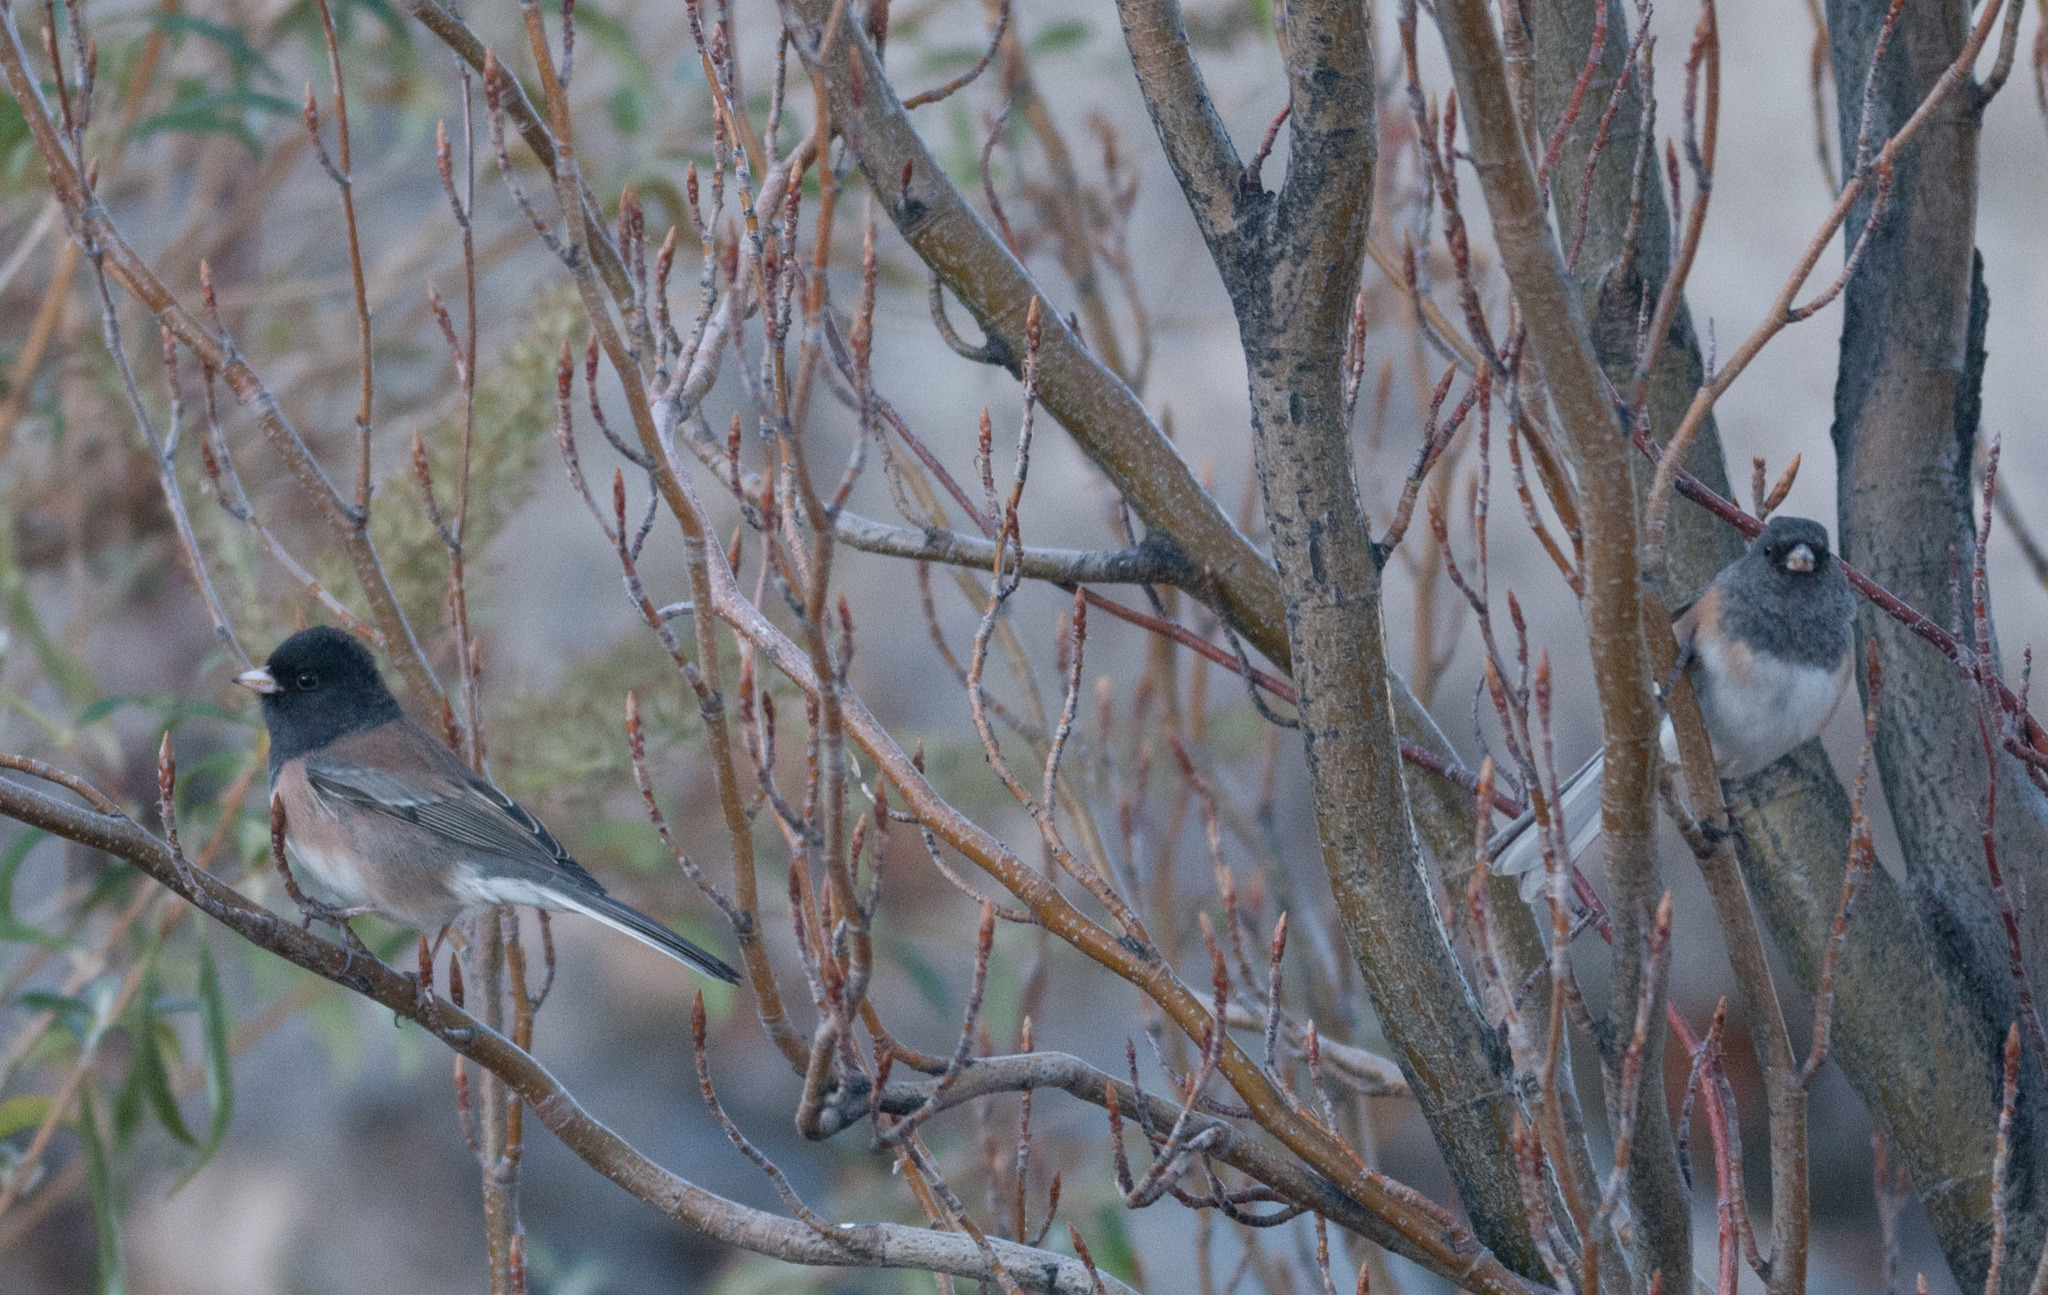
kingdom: Animalia
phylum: Chordata
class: Aves
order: Passeriformes
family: Passerellidae
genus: Junco
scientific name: Junco hyemalis
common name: Dark-eyed junco
